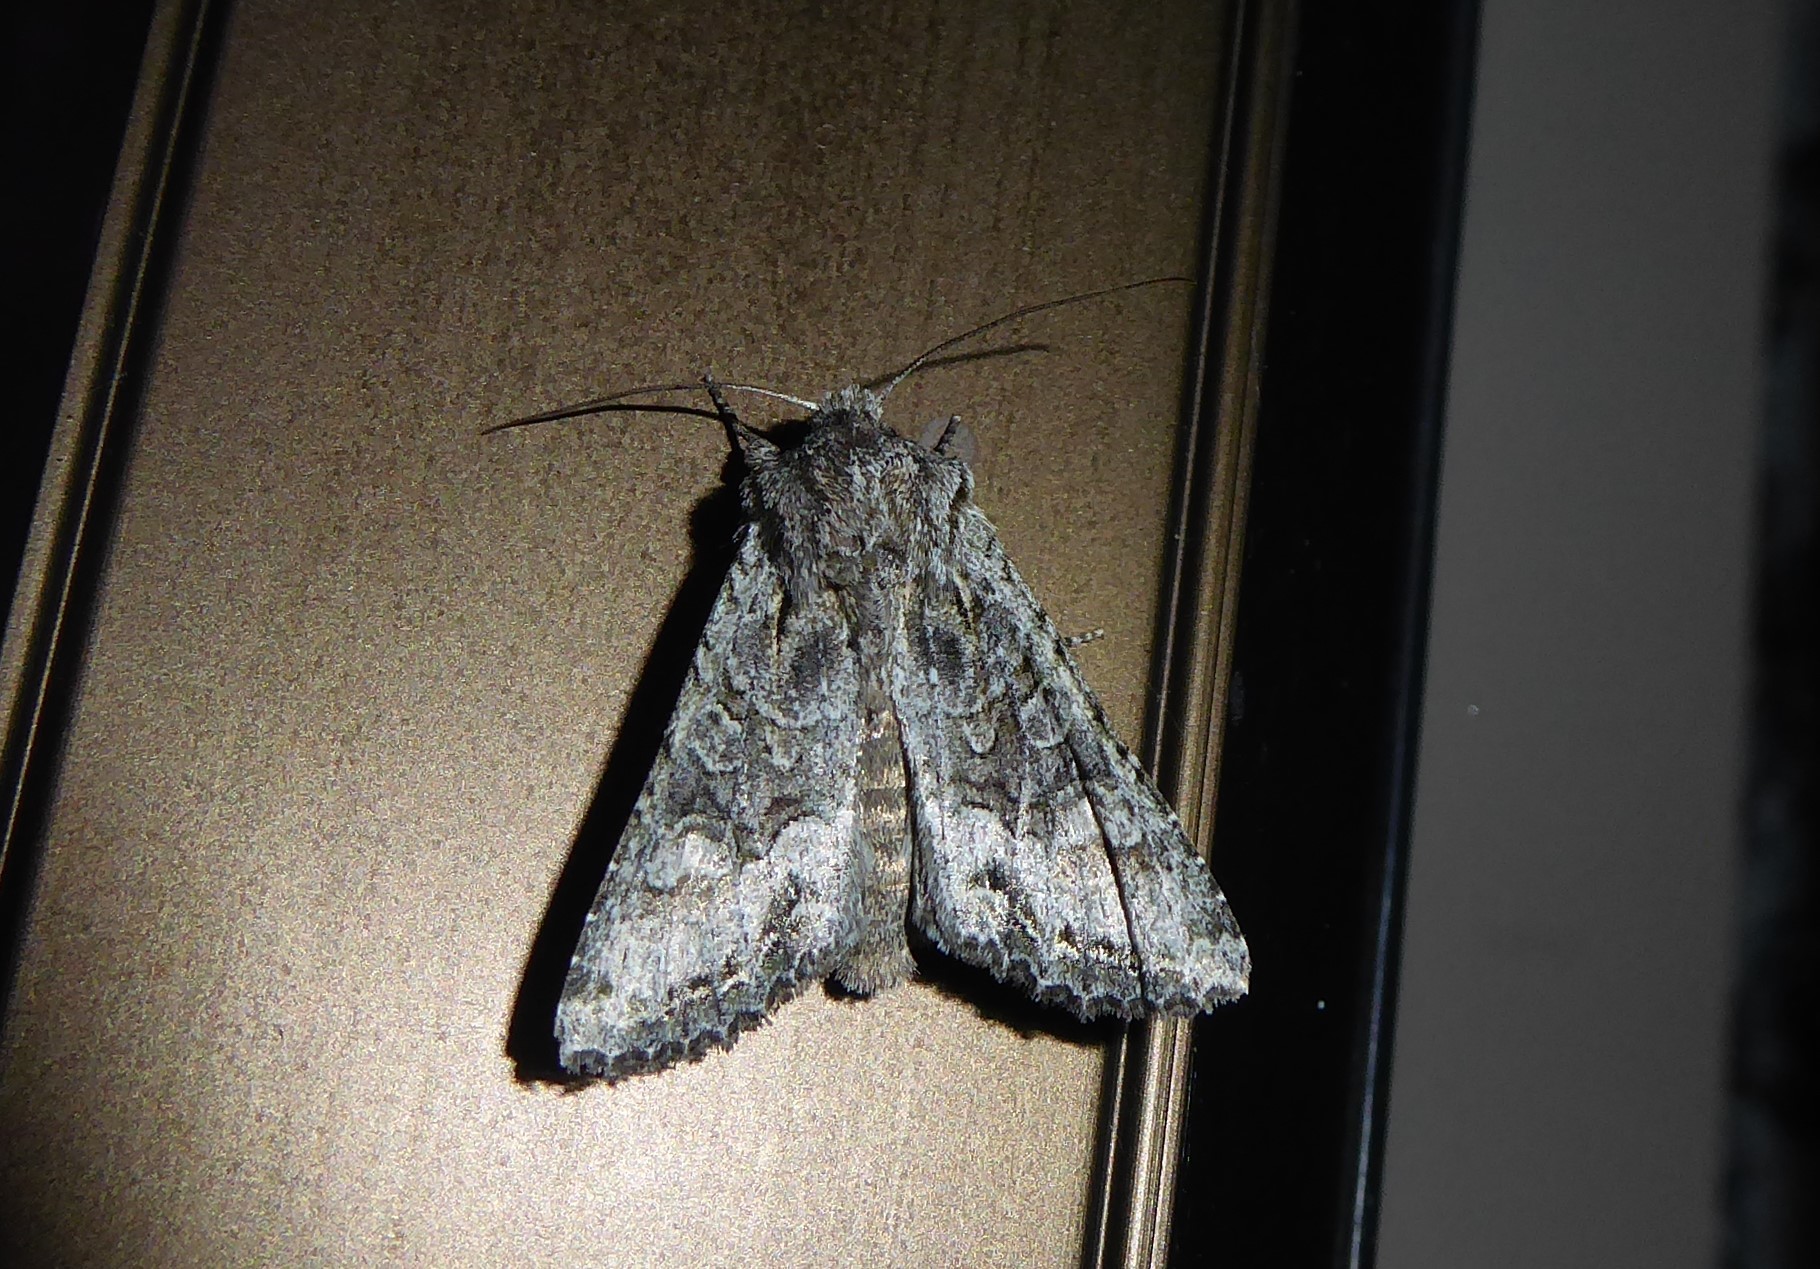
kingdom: Animalia
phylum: Arthropoda
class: Insecta
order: Lepidoptera
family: Noctuidae
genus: Ichneutica
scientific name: Ichneutica mutans
